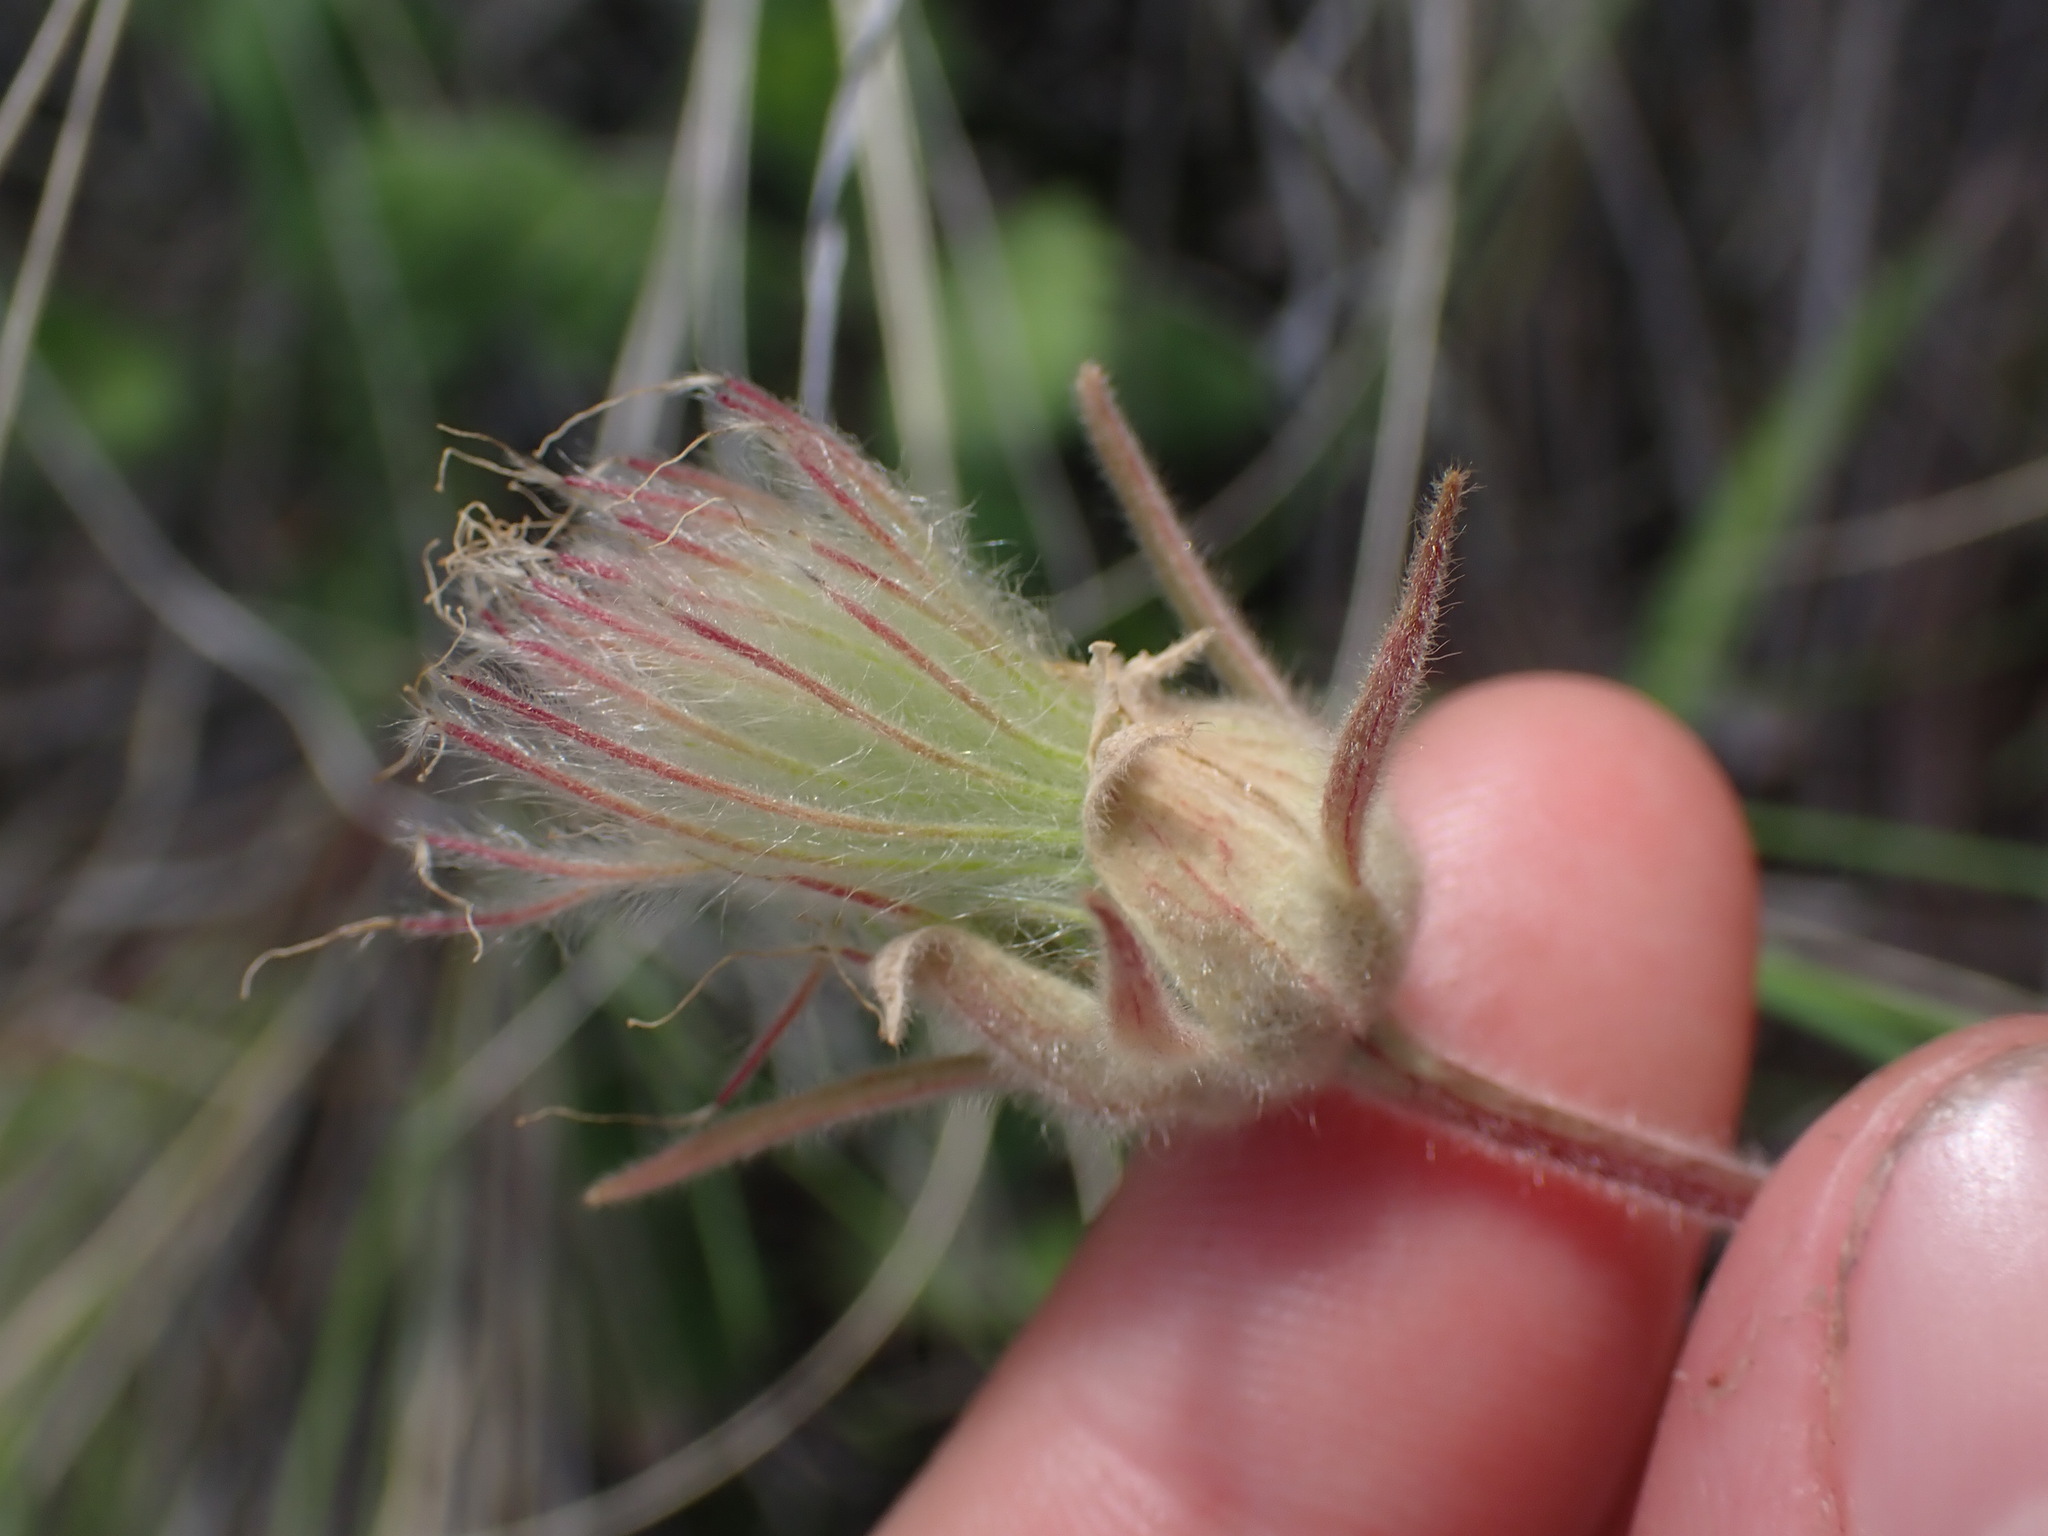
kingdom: Plantae
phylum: Tracheophyta
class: Magnoliopsida
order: Rosales
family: Rosaceae
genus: Geum
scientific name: Geum triflorum
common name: Old man's whiskers
